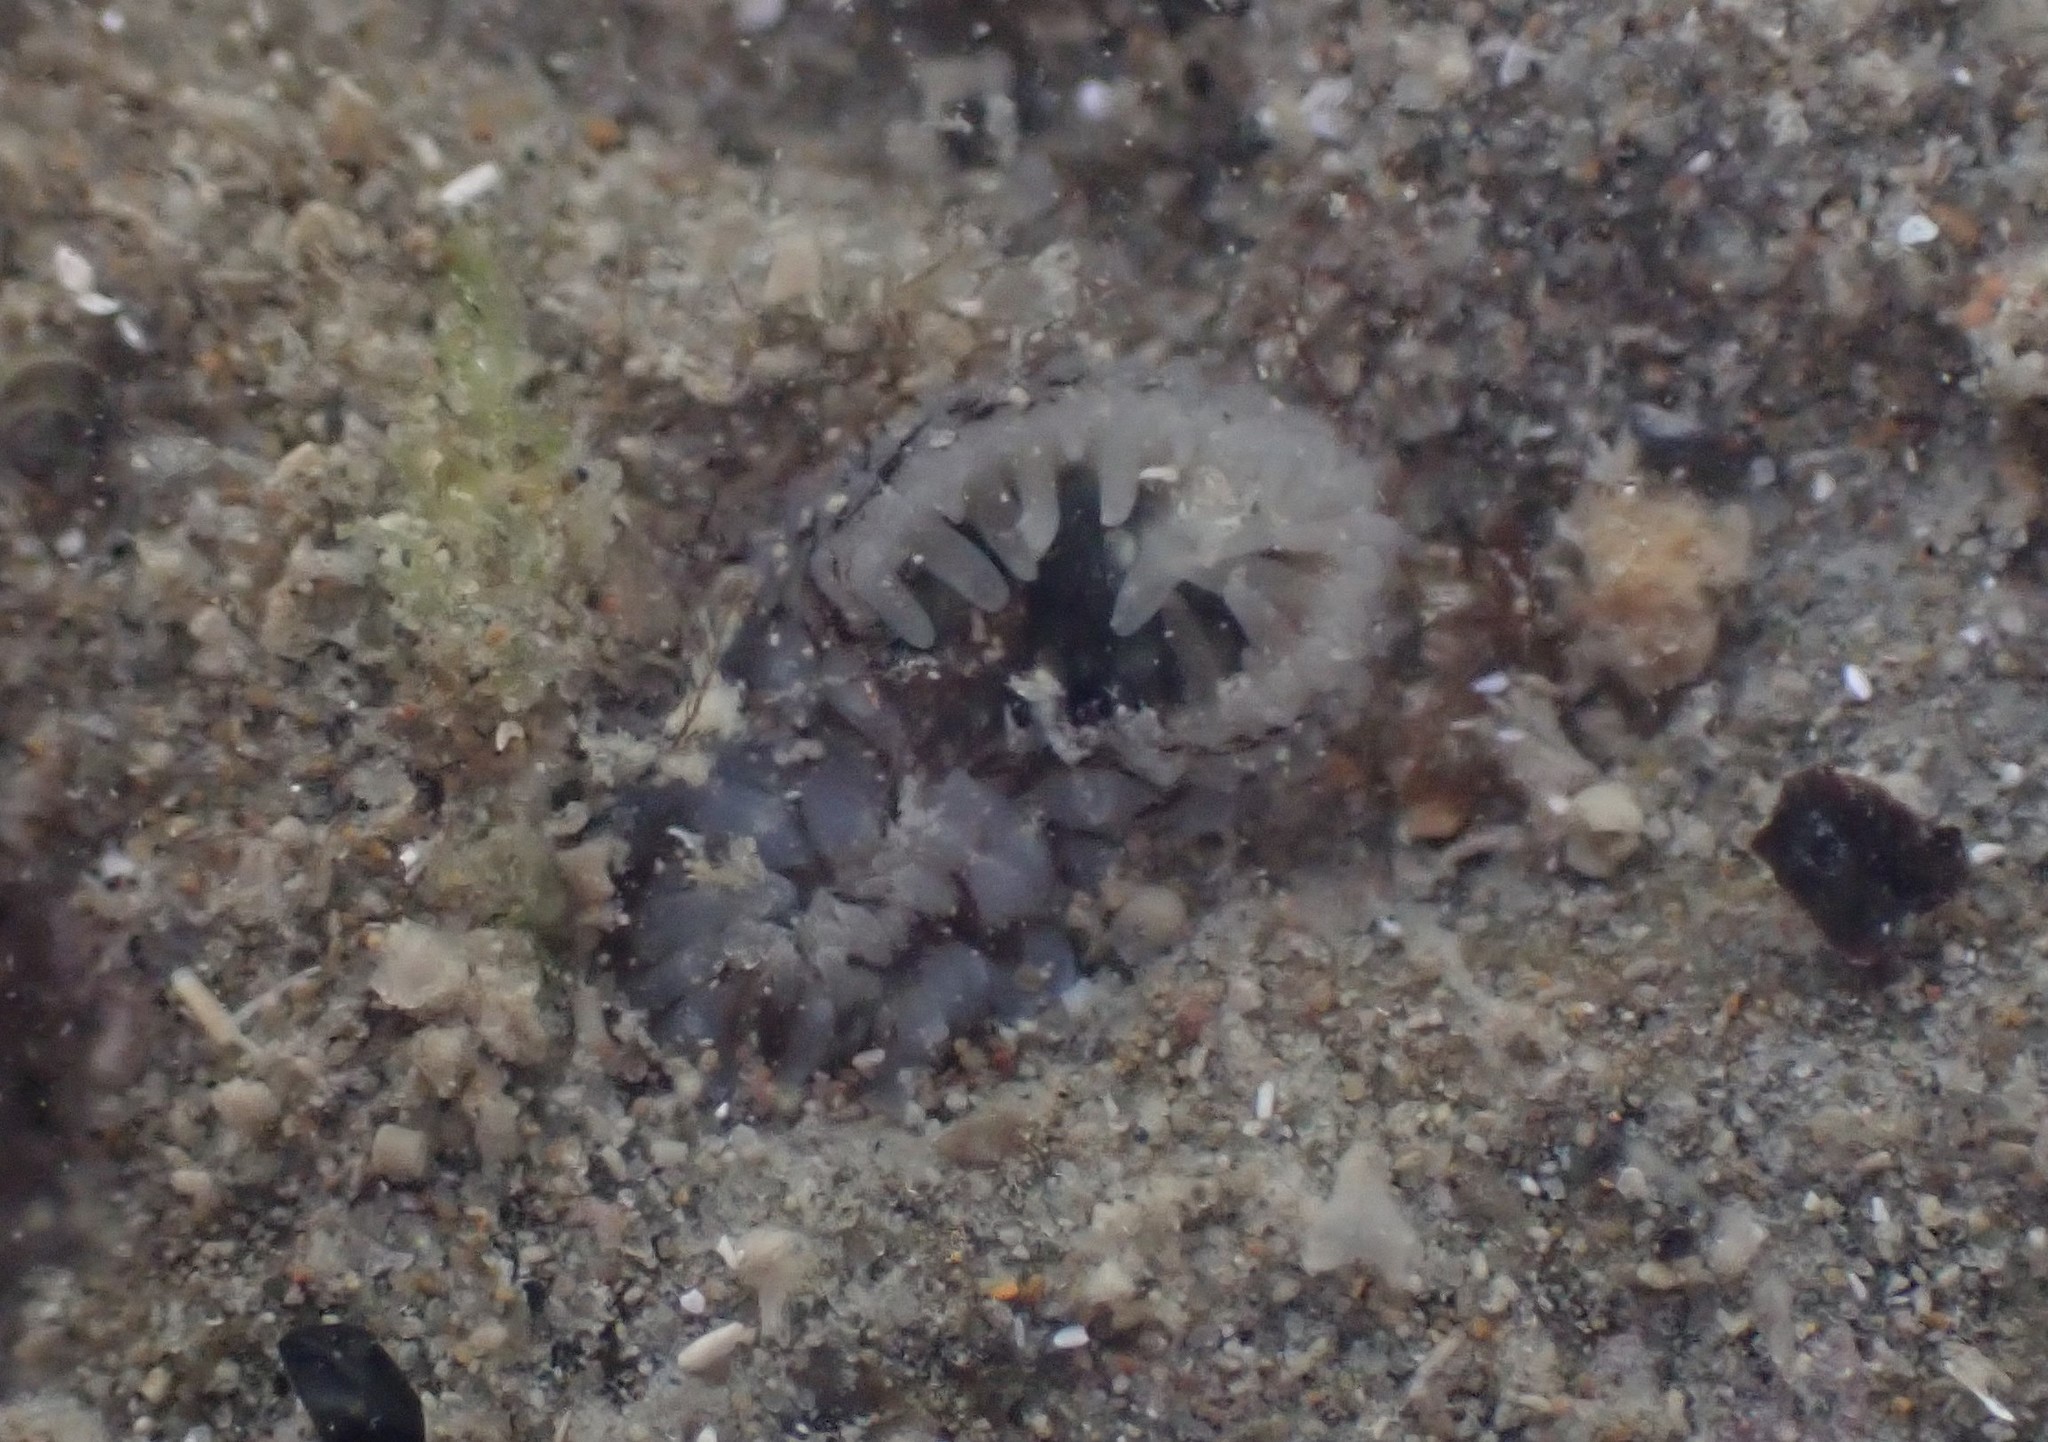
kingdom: Animalia
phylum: Mollusca
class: Bivalvia
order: Myida
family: Pholadidae
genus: Barnea
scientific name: Barnea similis
